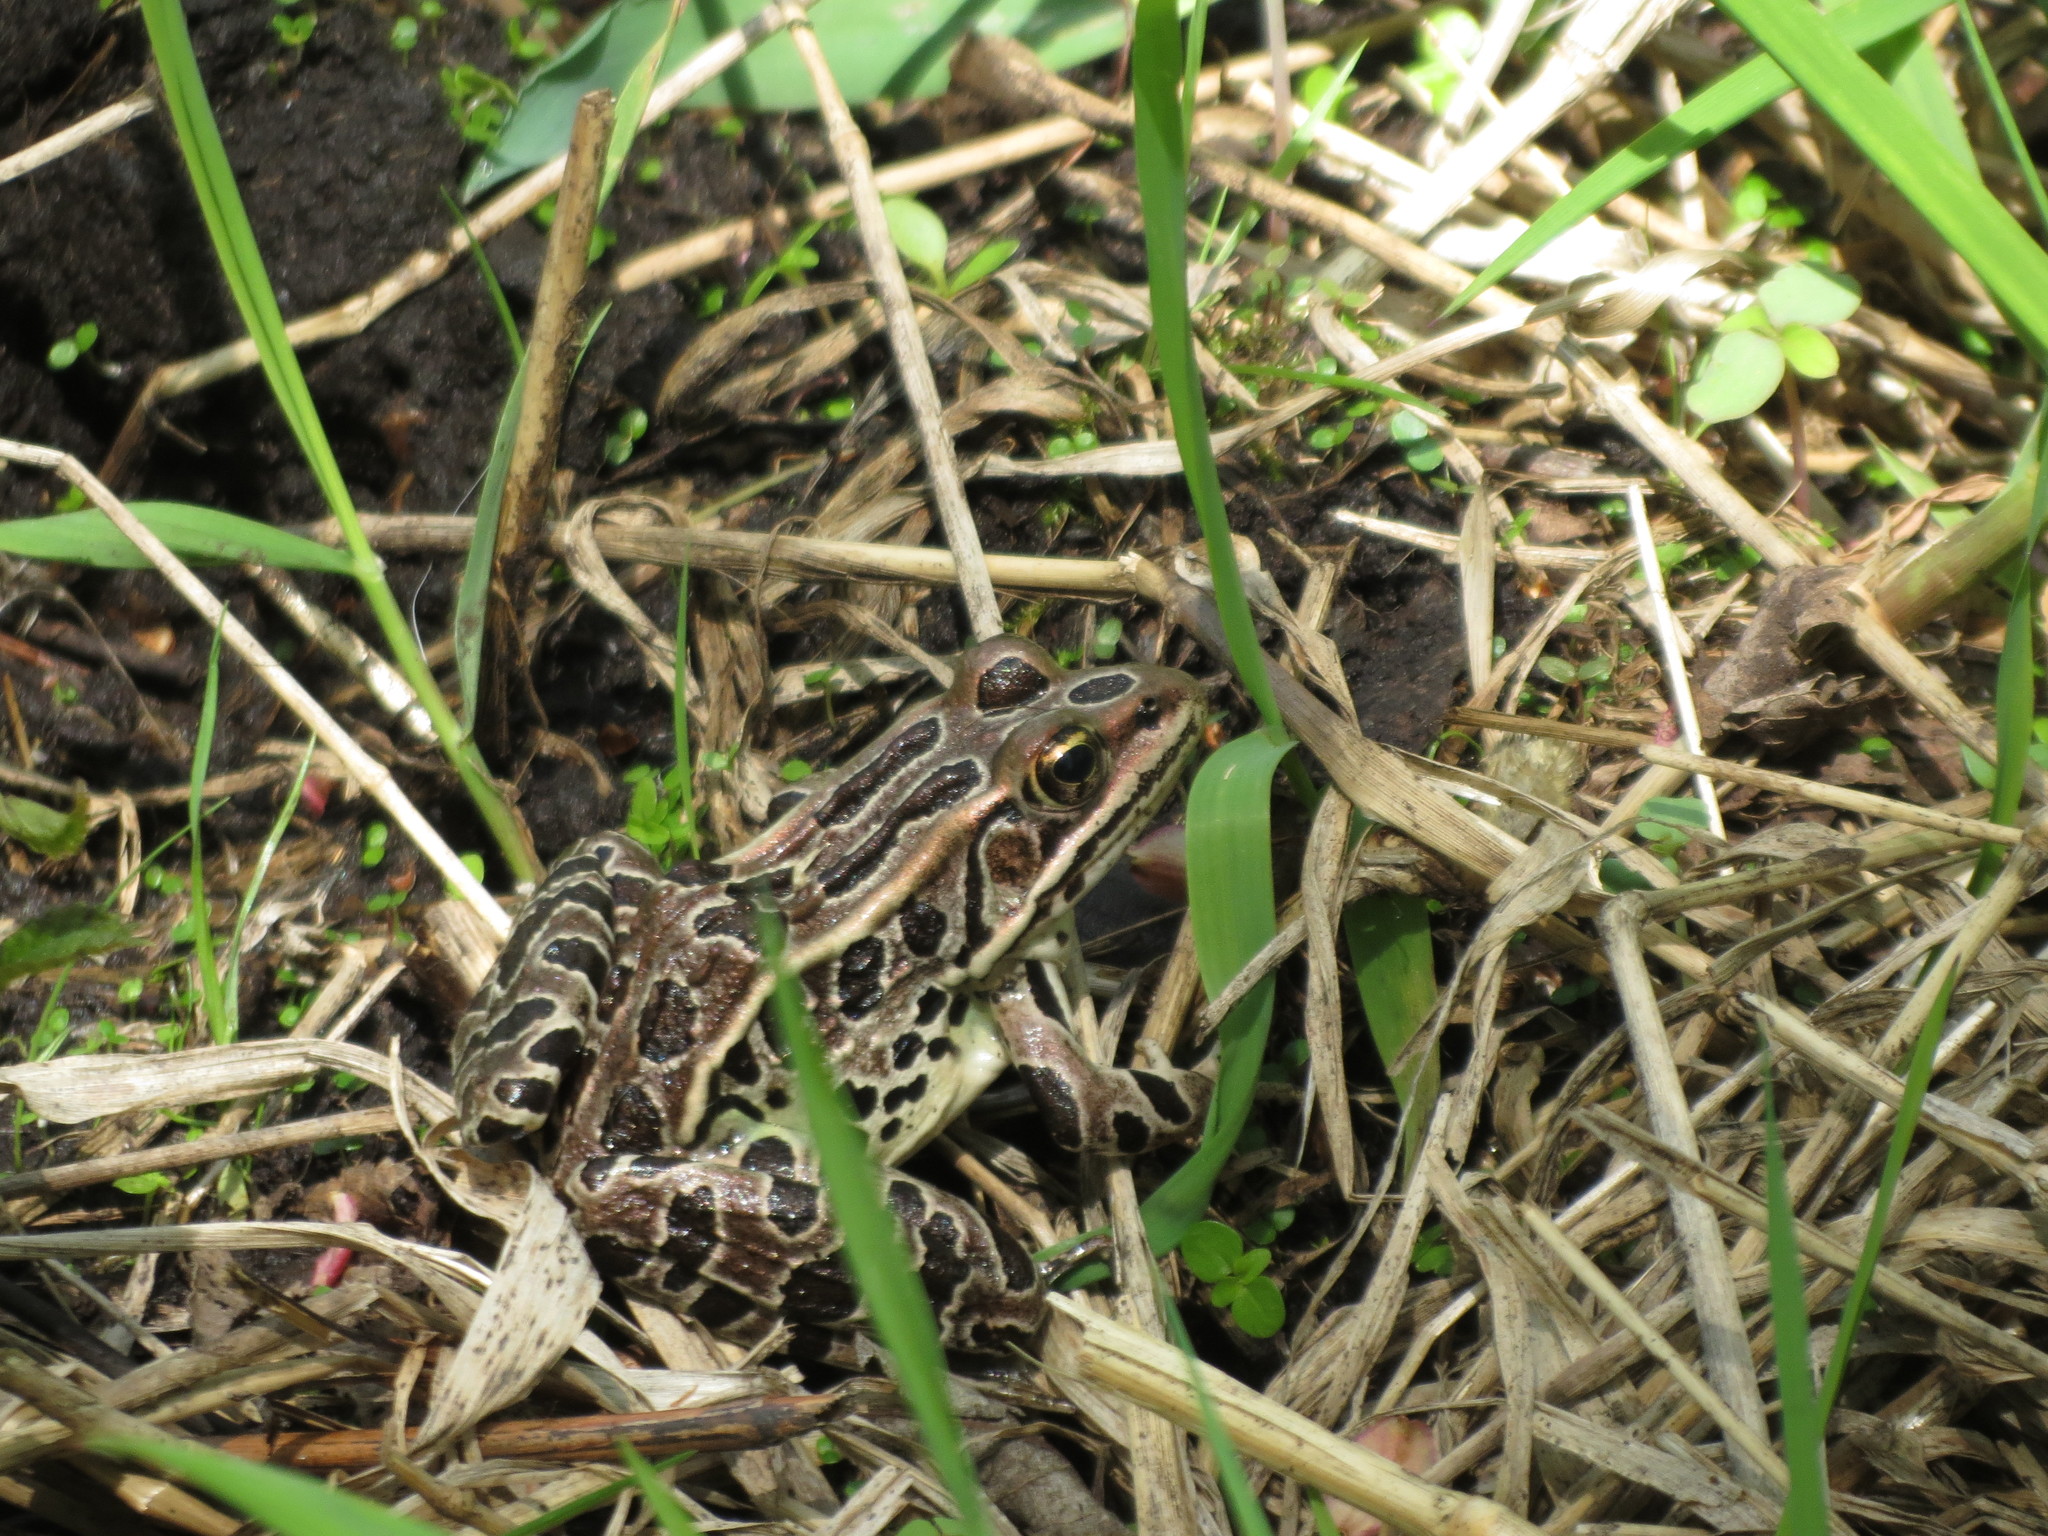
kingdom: Animalia
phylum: Chordata
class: Amphibia
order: Anura
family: Ranidae
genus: Lithobates
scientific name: Lithobates pipiens
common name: Northern leopard frog
